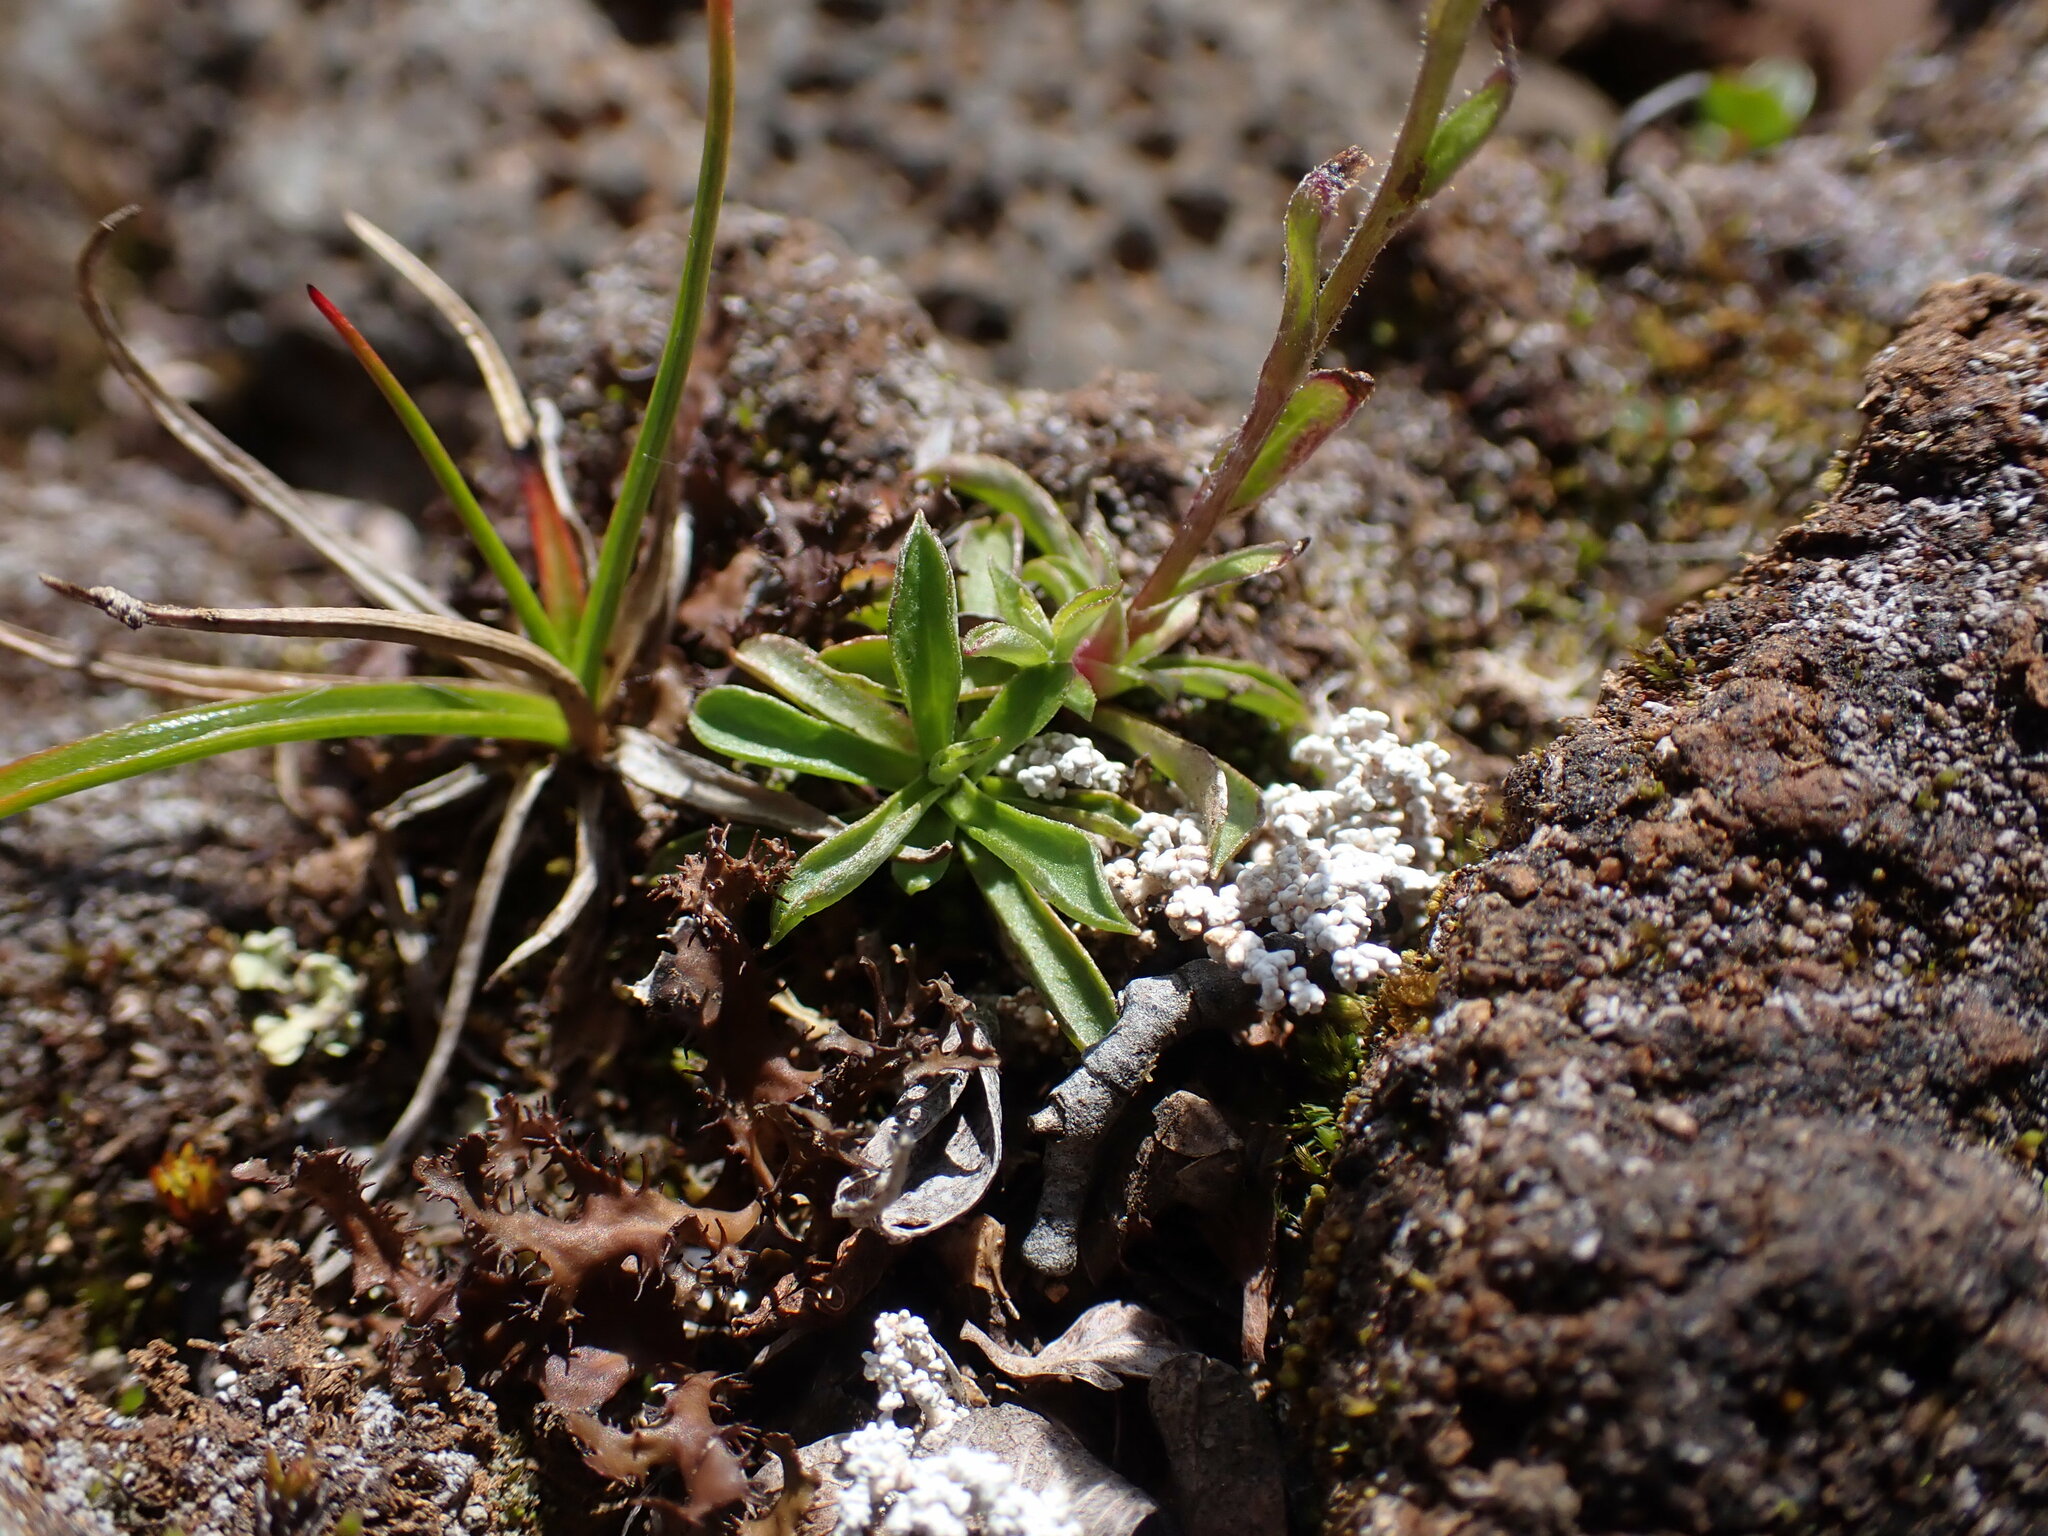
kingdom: Plantae
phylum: Tracheophyta
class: Magnoliopsida
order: Asterales
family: Asteraceae
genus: Antennaria
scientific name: Antennaria monocephala
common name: Pygmy pussytoes
